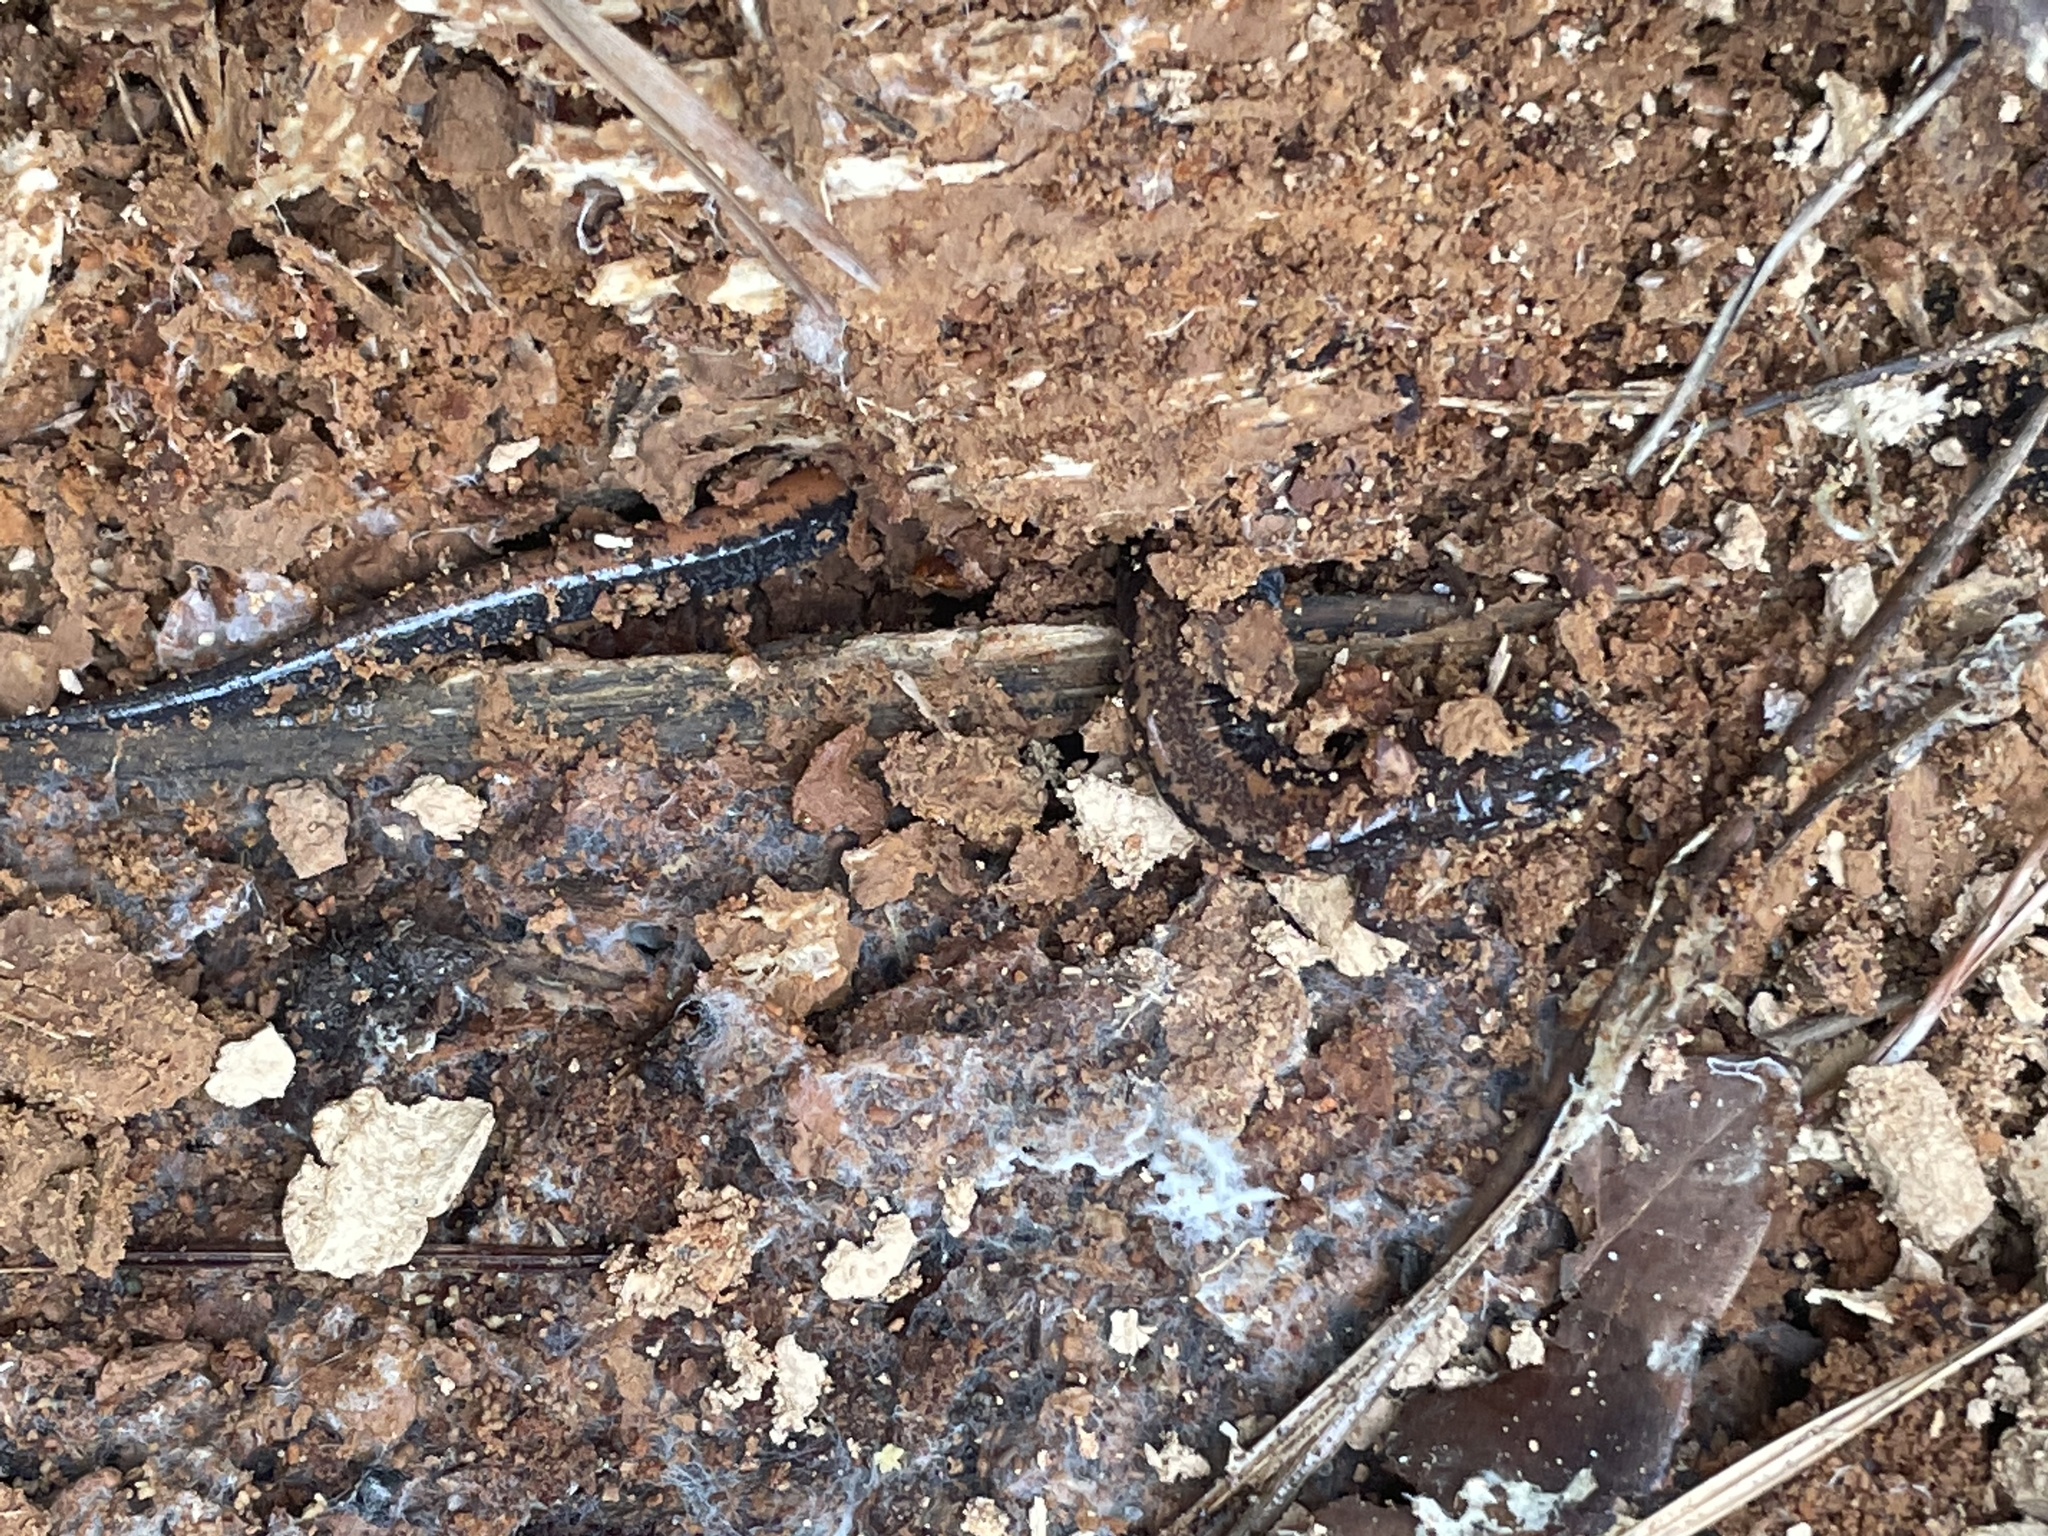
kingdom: Animalia
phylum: Chordata
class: Amphibia
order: Caudata
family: Plethodontidae
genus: Plethodon
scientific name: Plethodon cinereus
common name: Redback salamander
